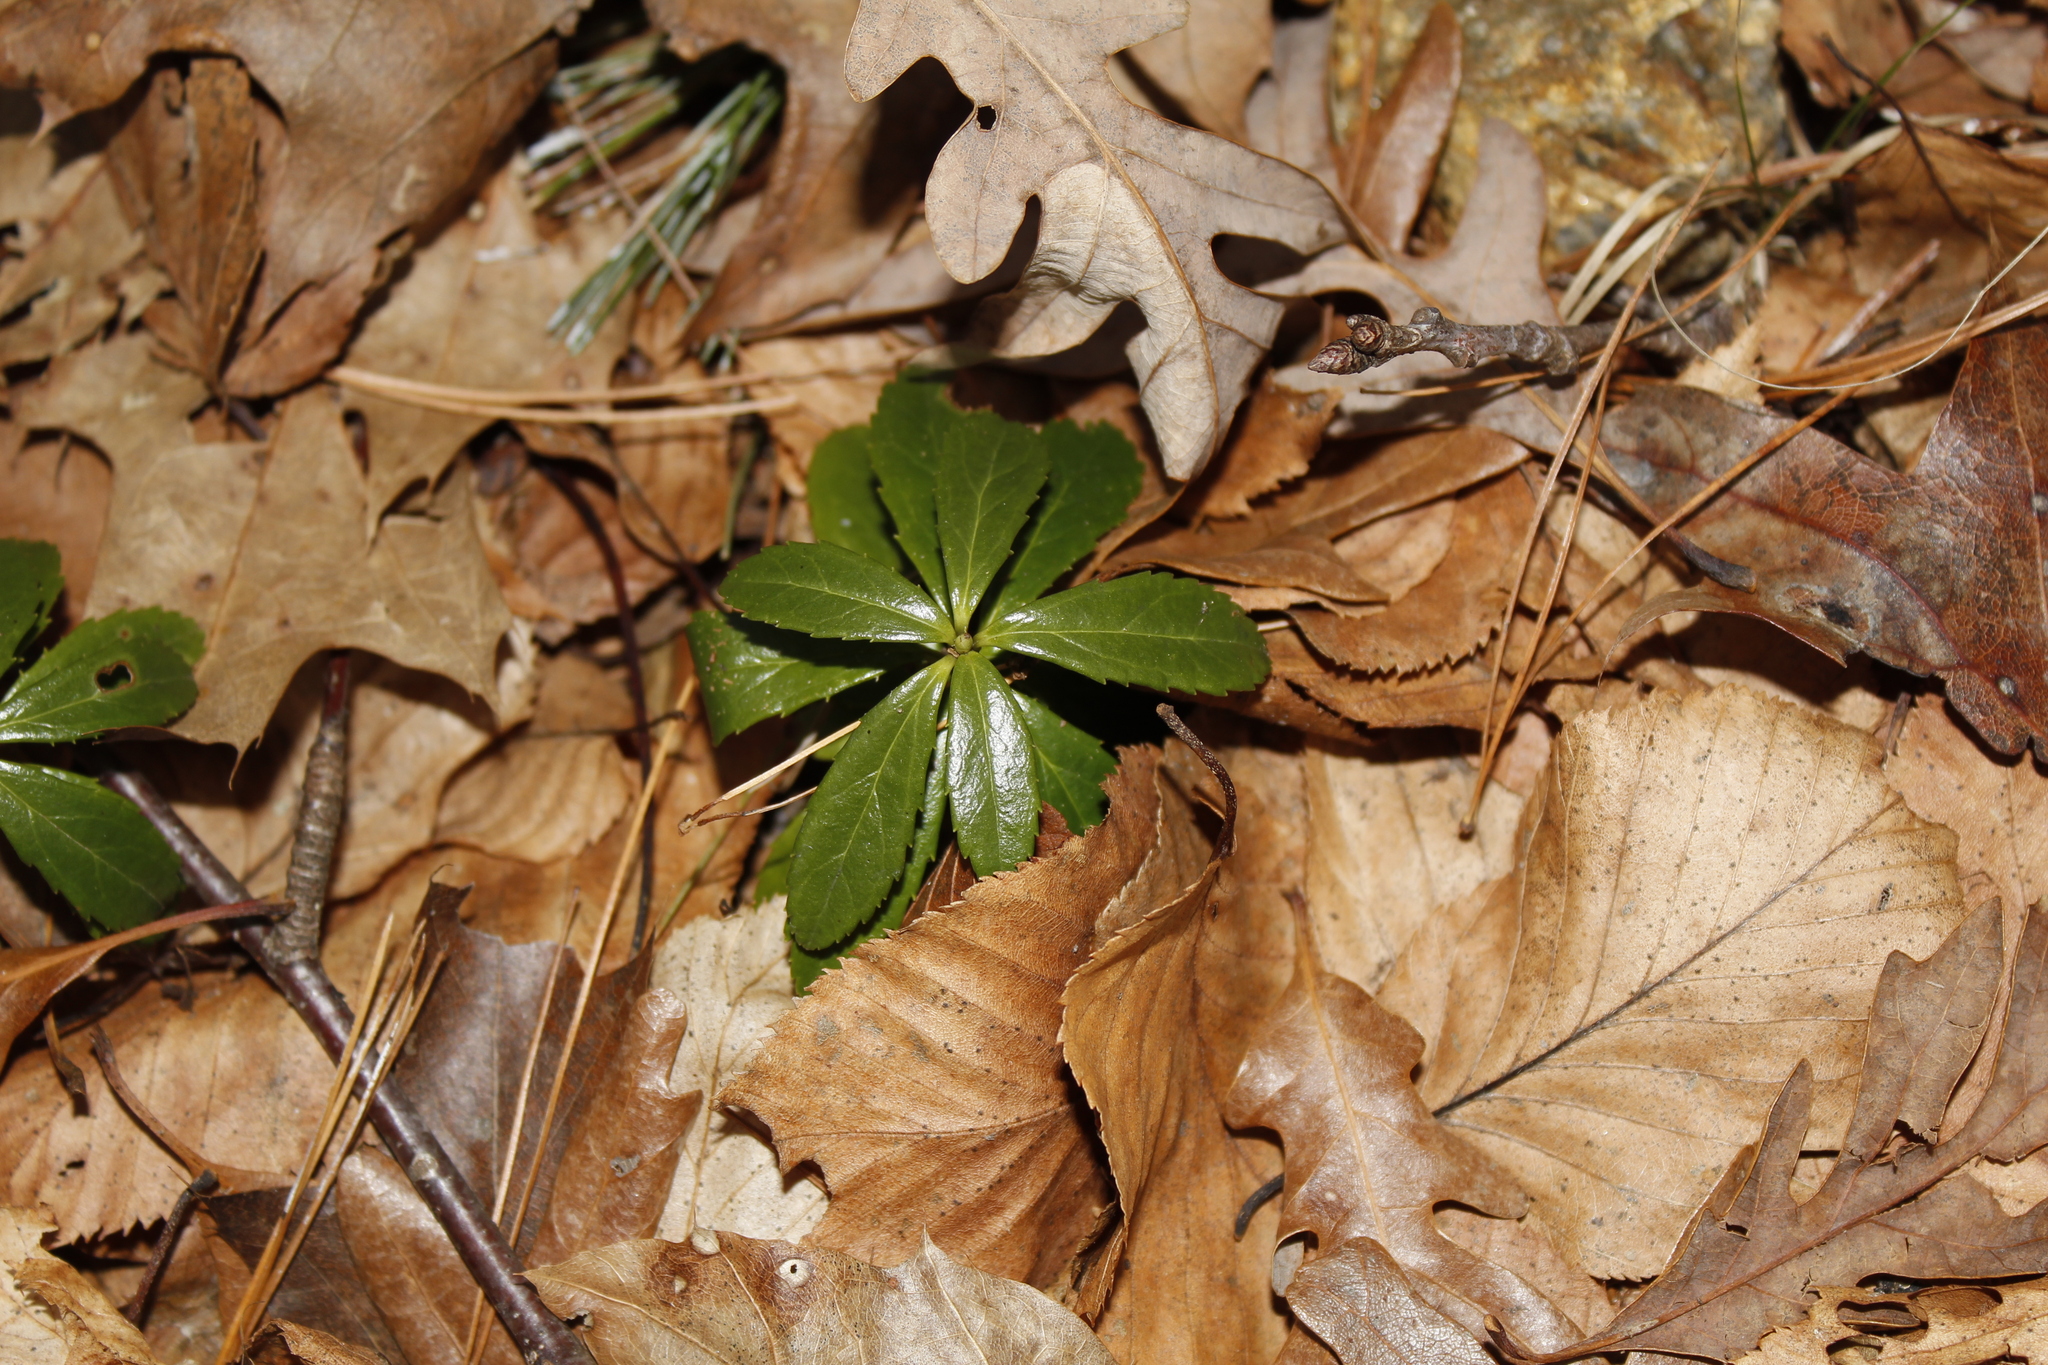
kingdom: Plantae
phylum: Tracheophyta
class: Magnoliopsida
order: Ericales
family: Ericaceae
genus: Chimaphila
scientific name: Chimaphila umbellata
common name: Pipsissewa
